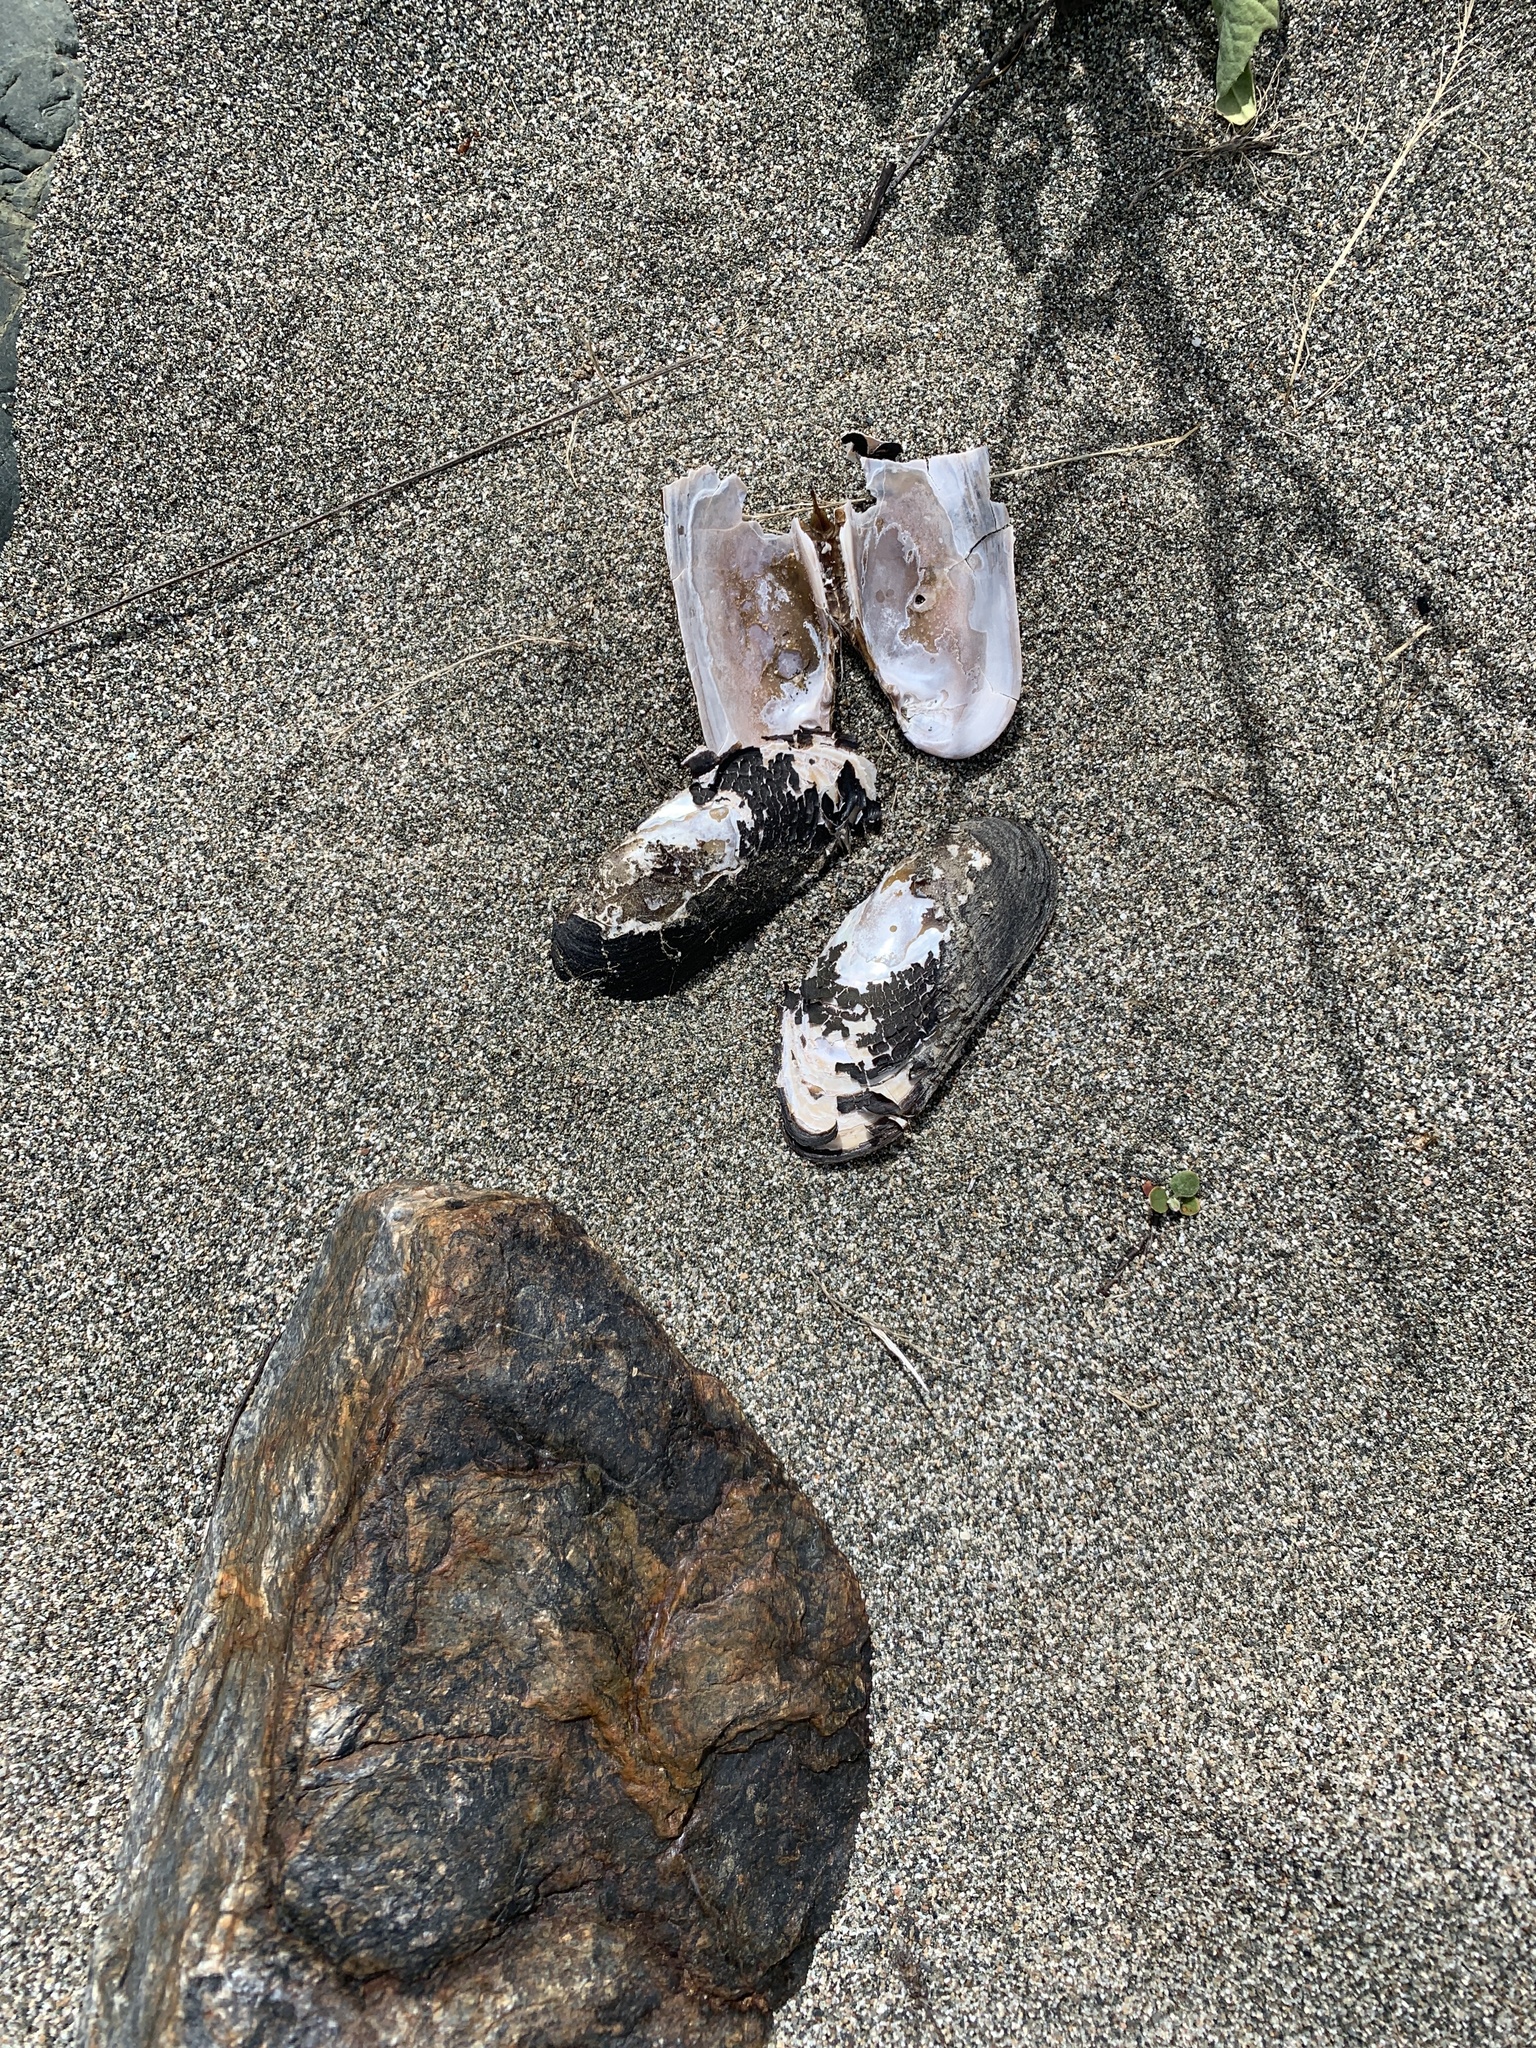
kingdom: Animalia
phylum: Mollusca
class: Bivalvia
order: Unionida
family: Margaritiferidae
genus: Margaritifera
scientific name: Margaritifera falcata
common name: Western pearlshell
